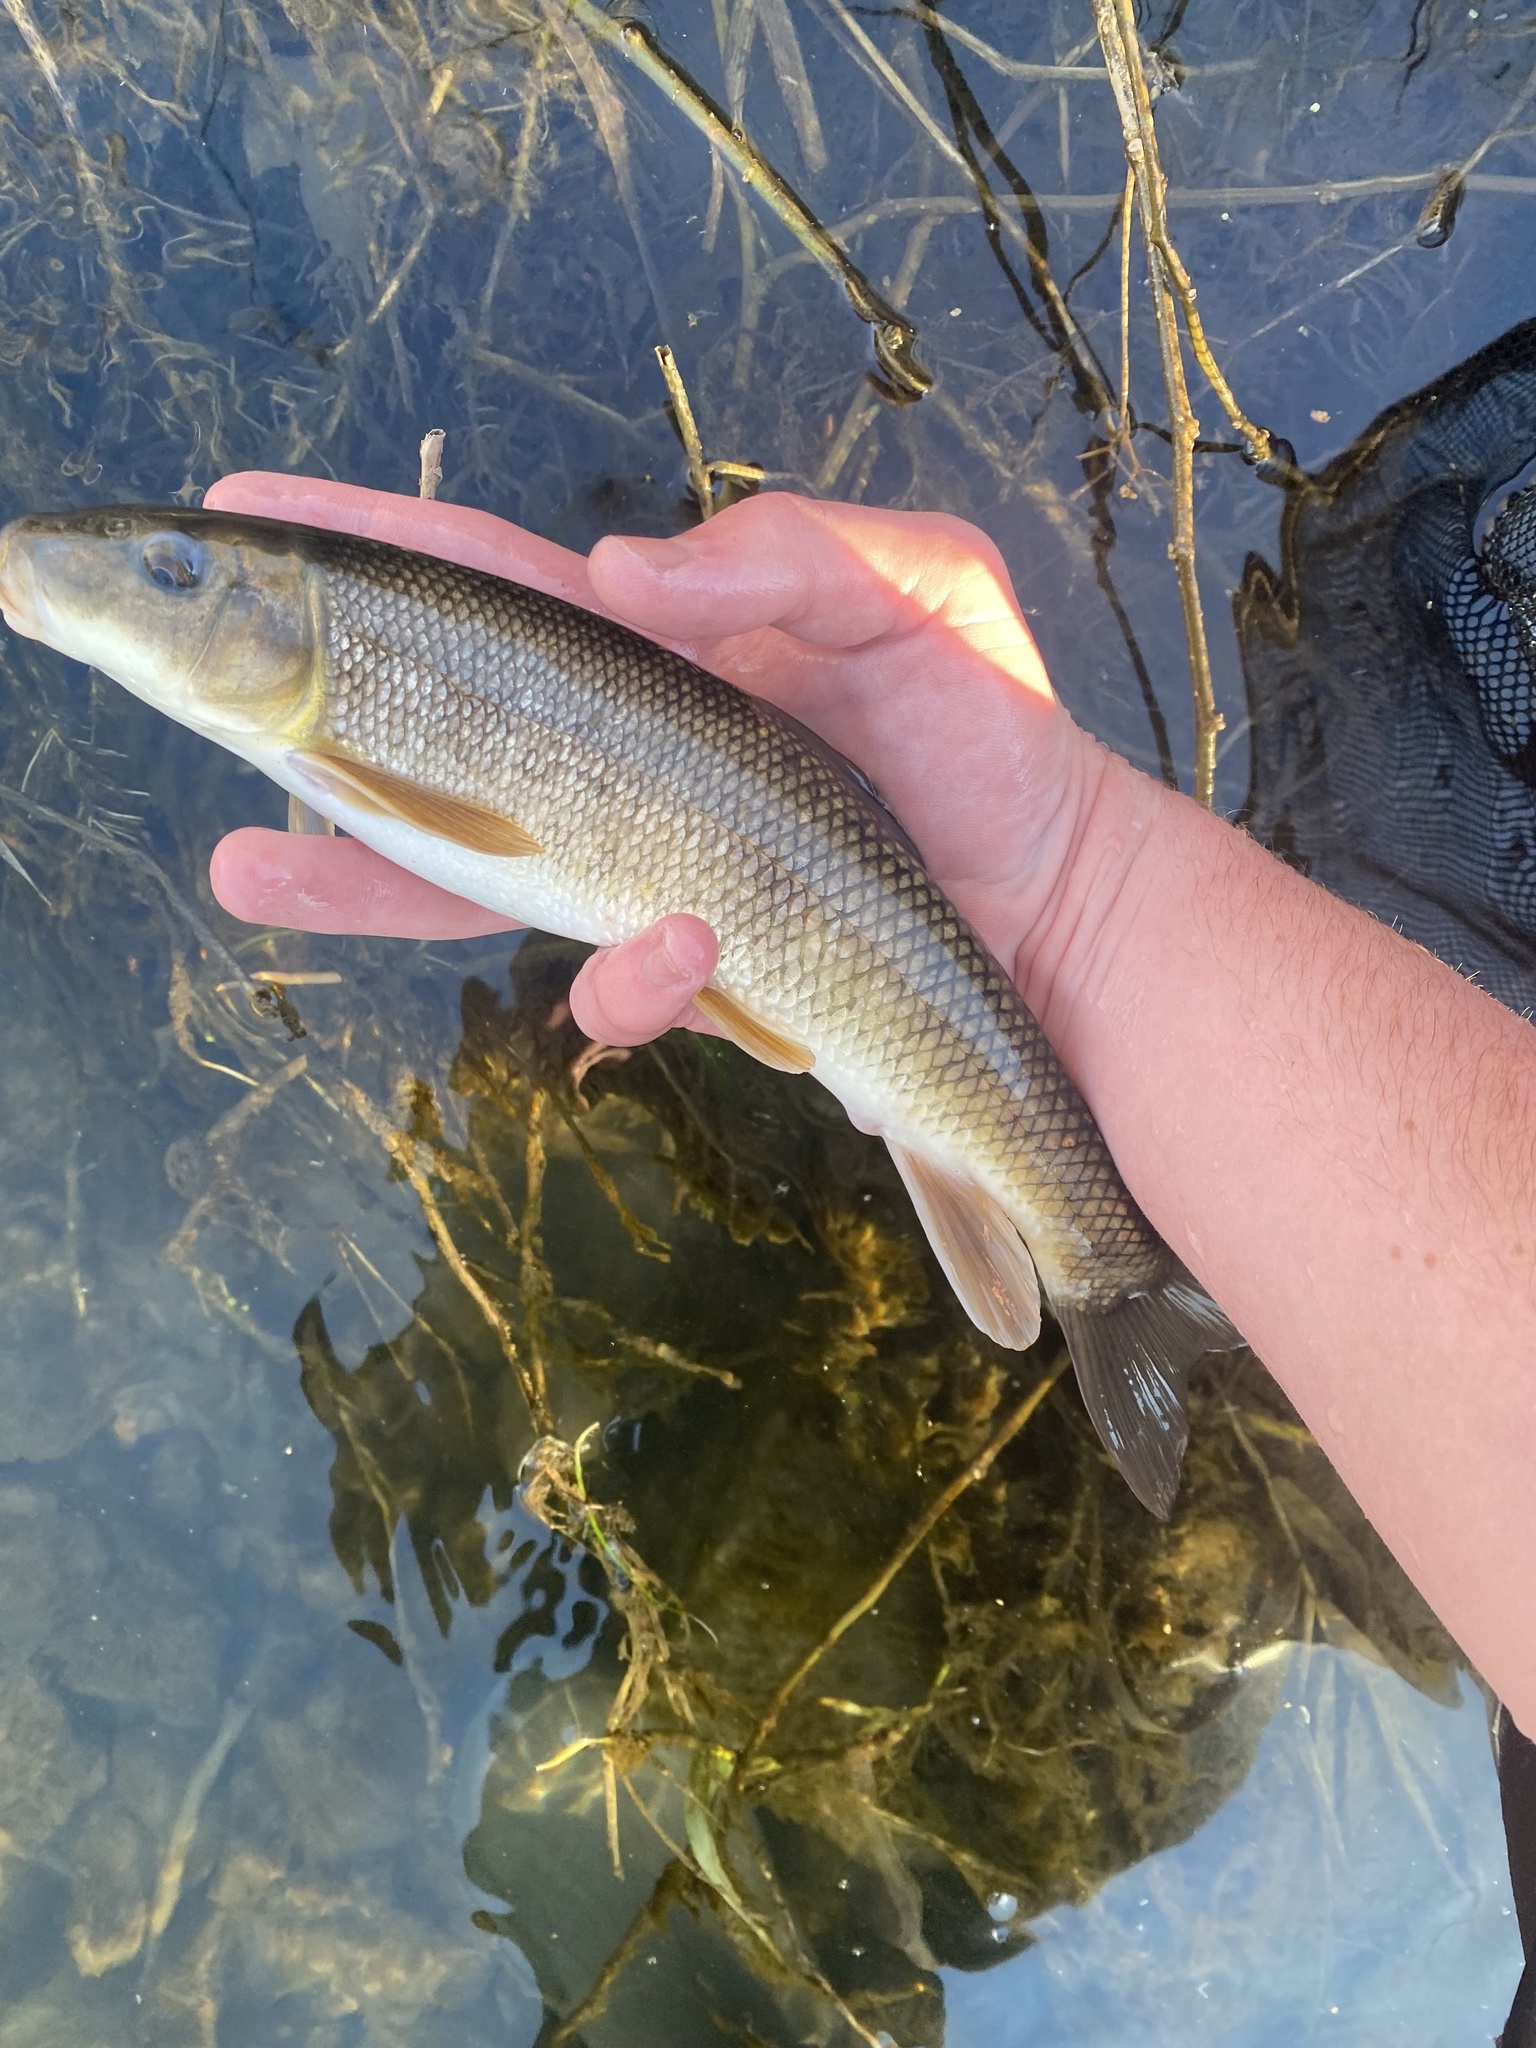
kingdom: Animalia
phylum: Chordata
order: Cypriniformes
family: Catostomidae
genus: Catostomus
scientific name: Catostomus commersonii
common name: White sucker
